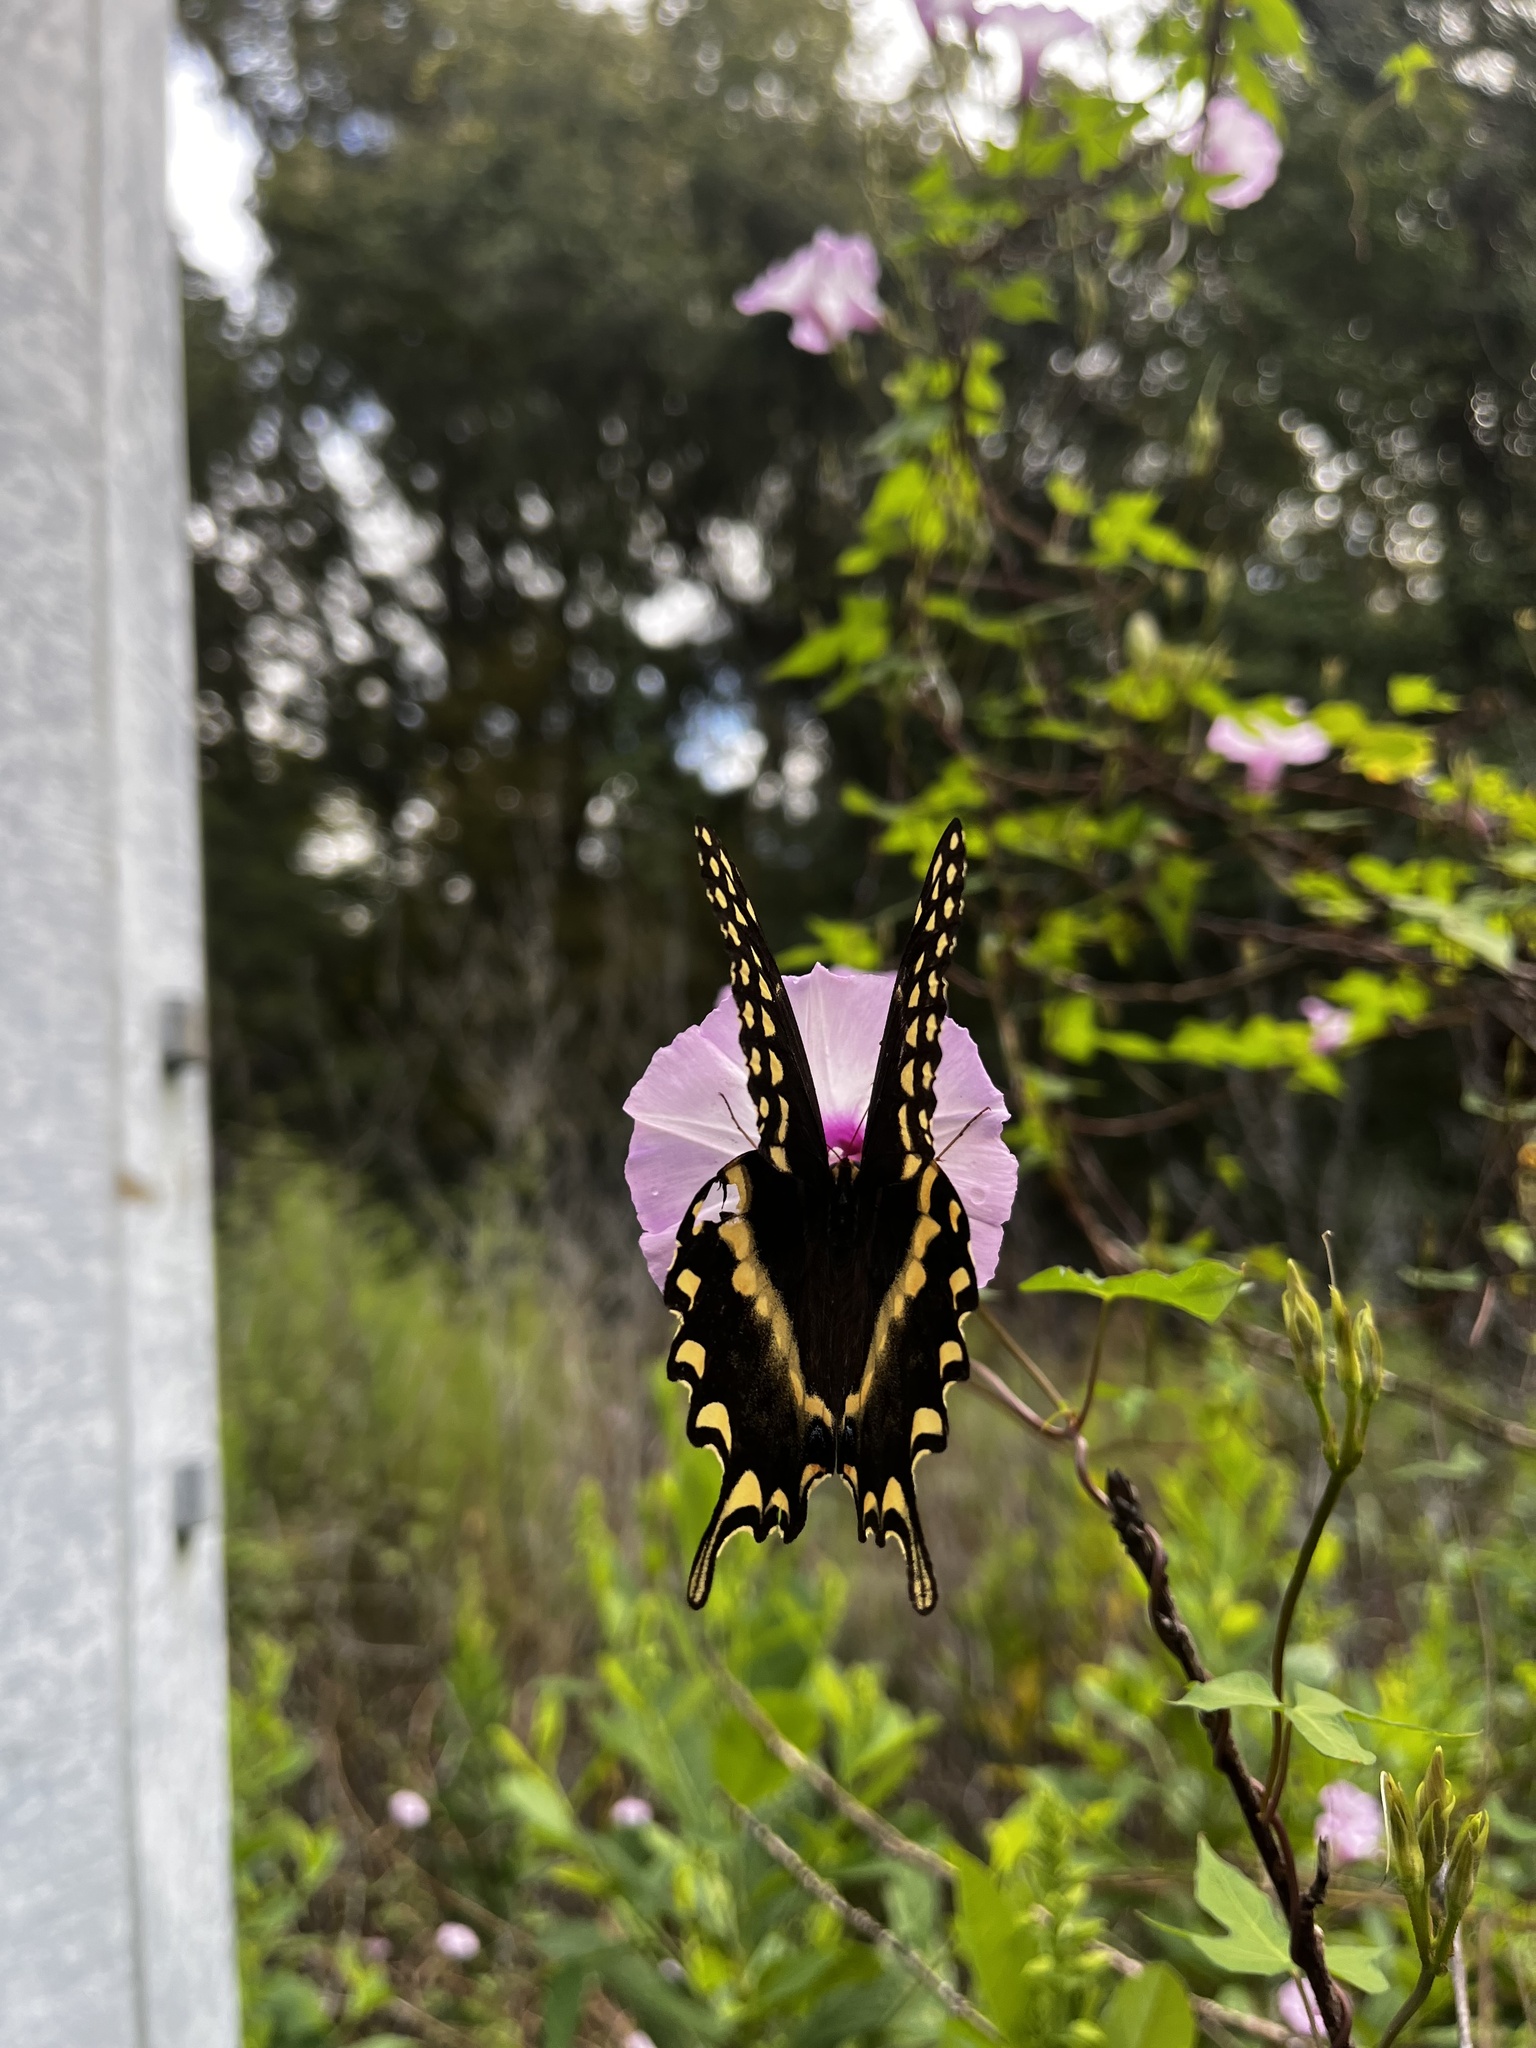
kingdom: Animalia
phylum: Arthropoda
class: Insecta
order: Lepidoptera
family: Papilionidae
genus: Papilio
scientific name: Papilio palamedes
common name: Palamedes swallowtail
